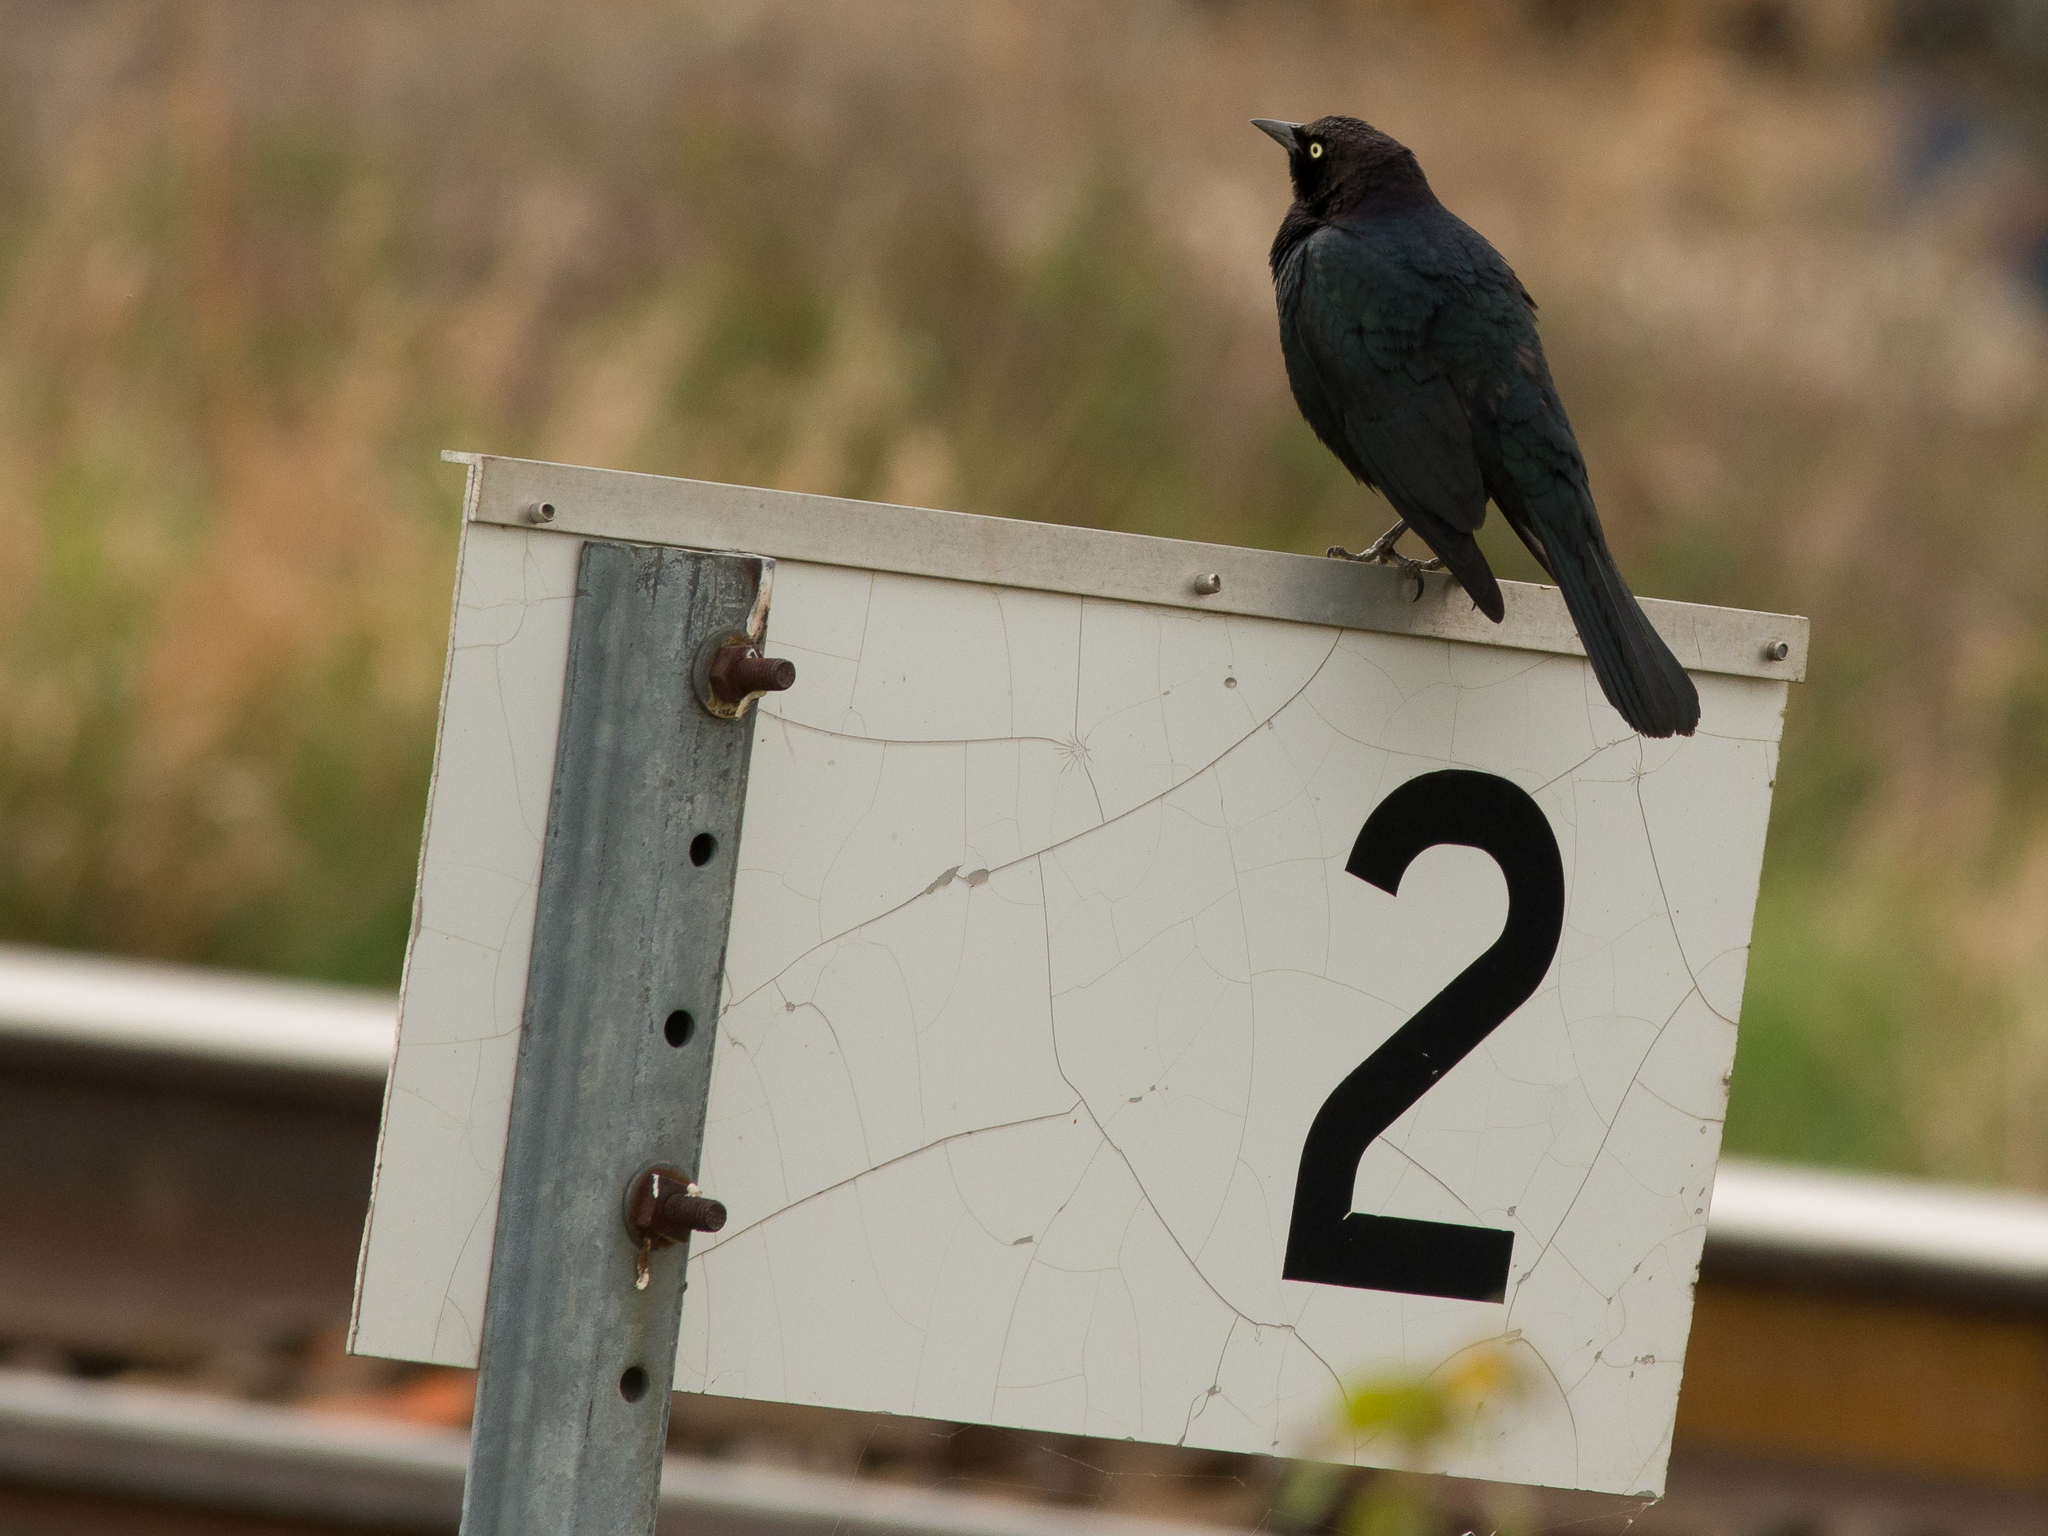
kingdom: Animalia
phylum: Chordata
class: Aves
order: Passeriformes
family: Icteridae
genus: Euphagus
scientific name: Euphagus cyanocephalus
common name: Brewer's blackbird
